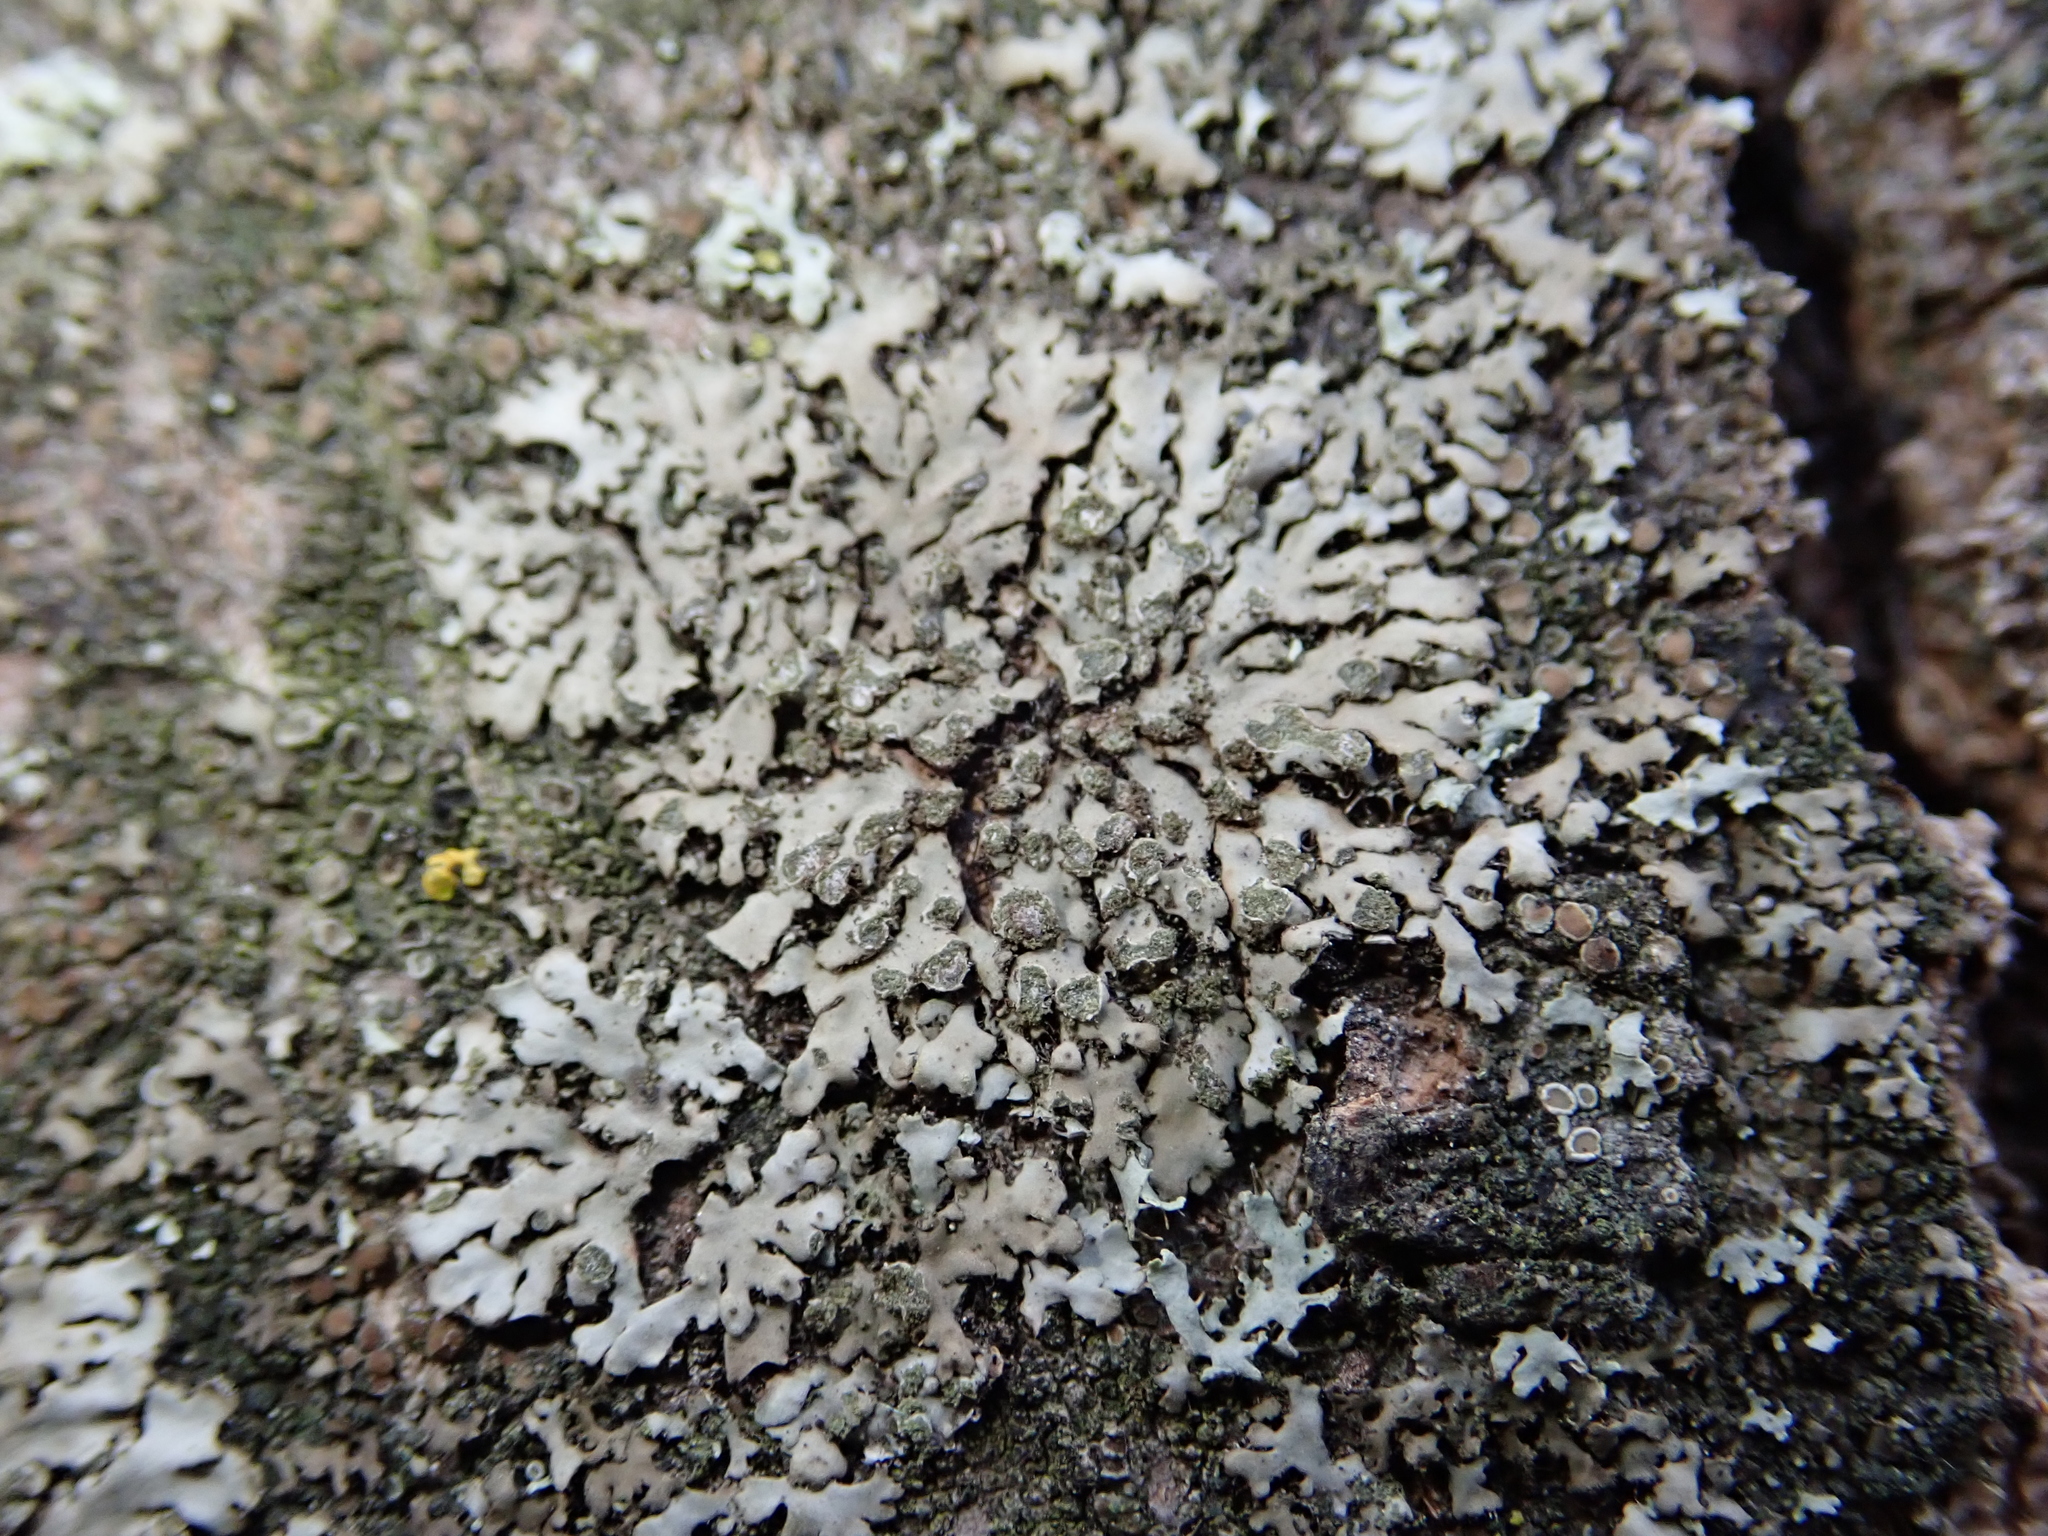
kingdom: Fungi
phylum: Ascomycota
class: Lecanoromycetes
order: Caliciales
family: Physciaceae
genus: Phaeophyscia
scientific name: Phaeophyscia orbicularis
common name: Mealy shadow lichen
